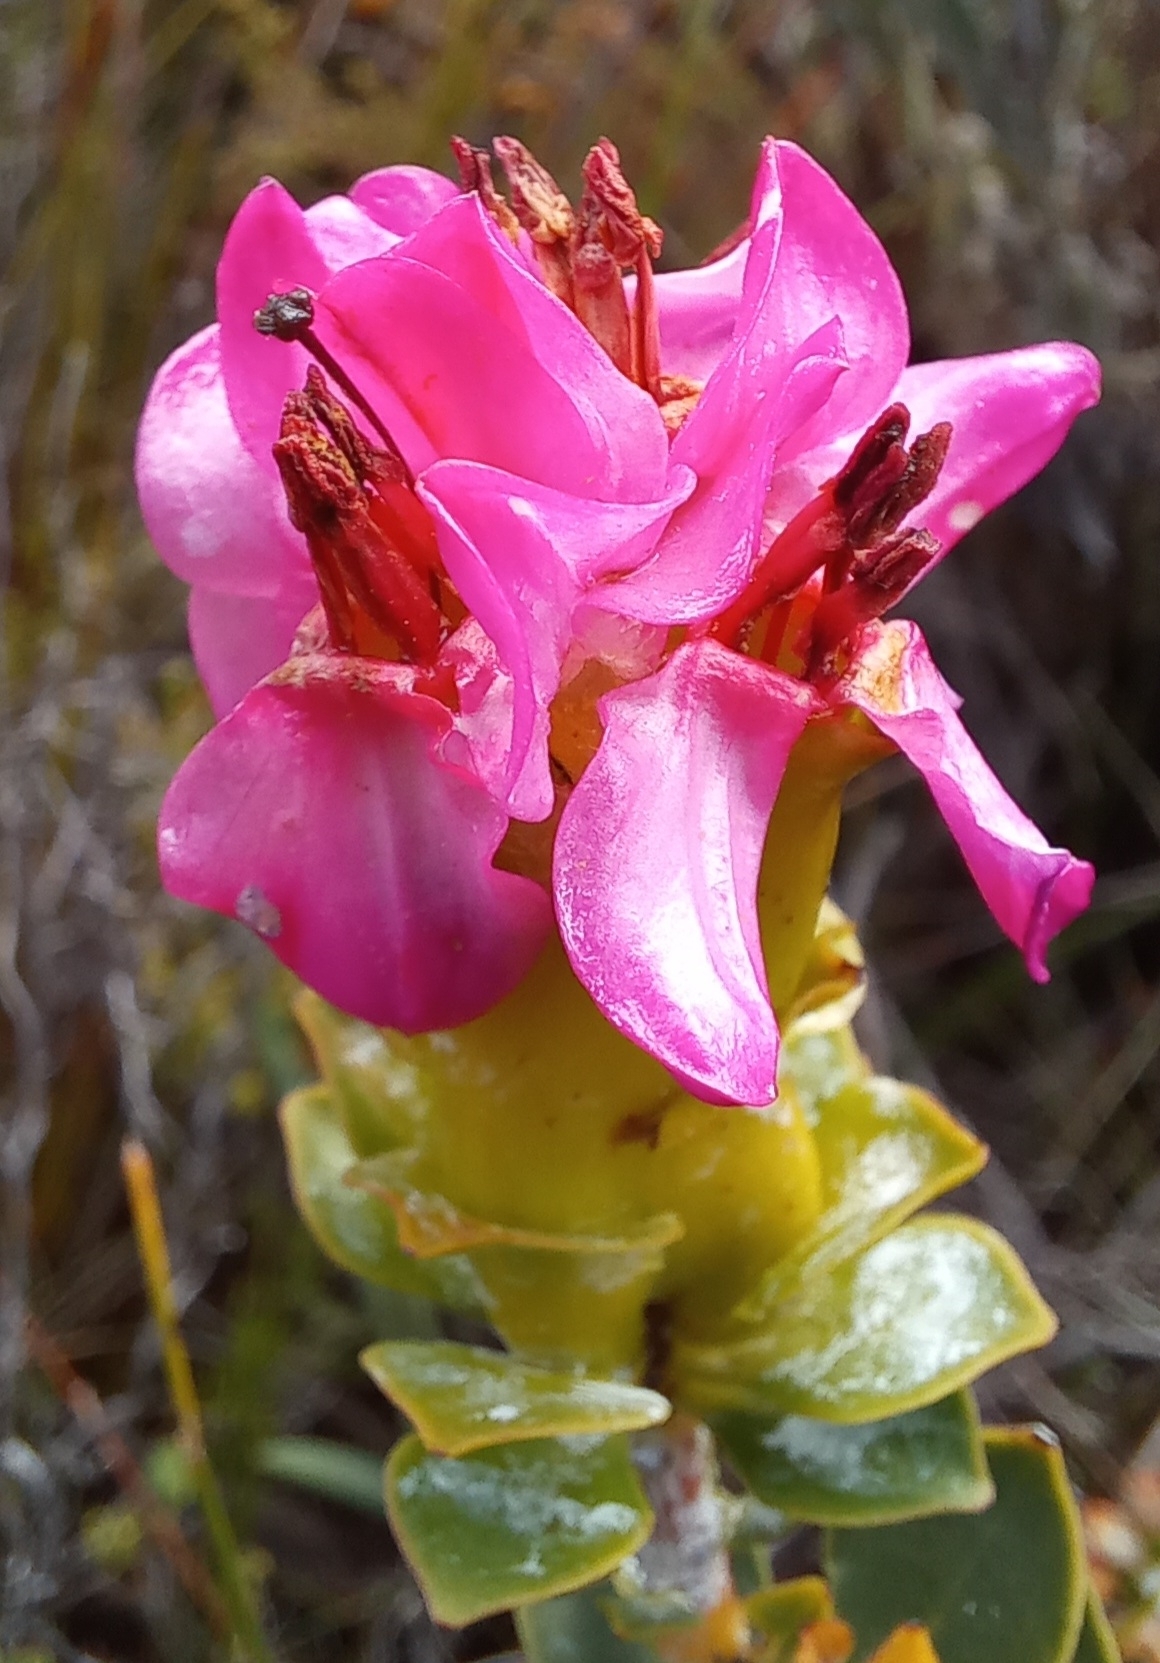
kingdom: Plantae
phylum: Tracheophyta
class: Magnoliopsida
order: Myrtales
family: Penaeaceae
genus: Saltera
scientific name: Saltera sarcocolla
